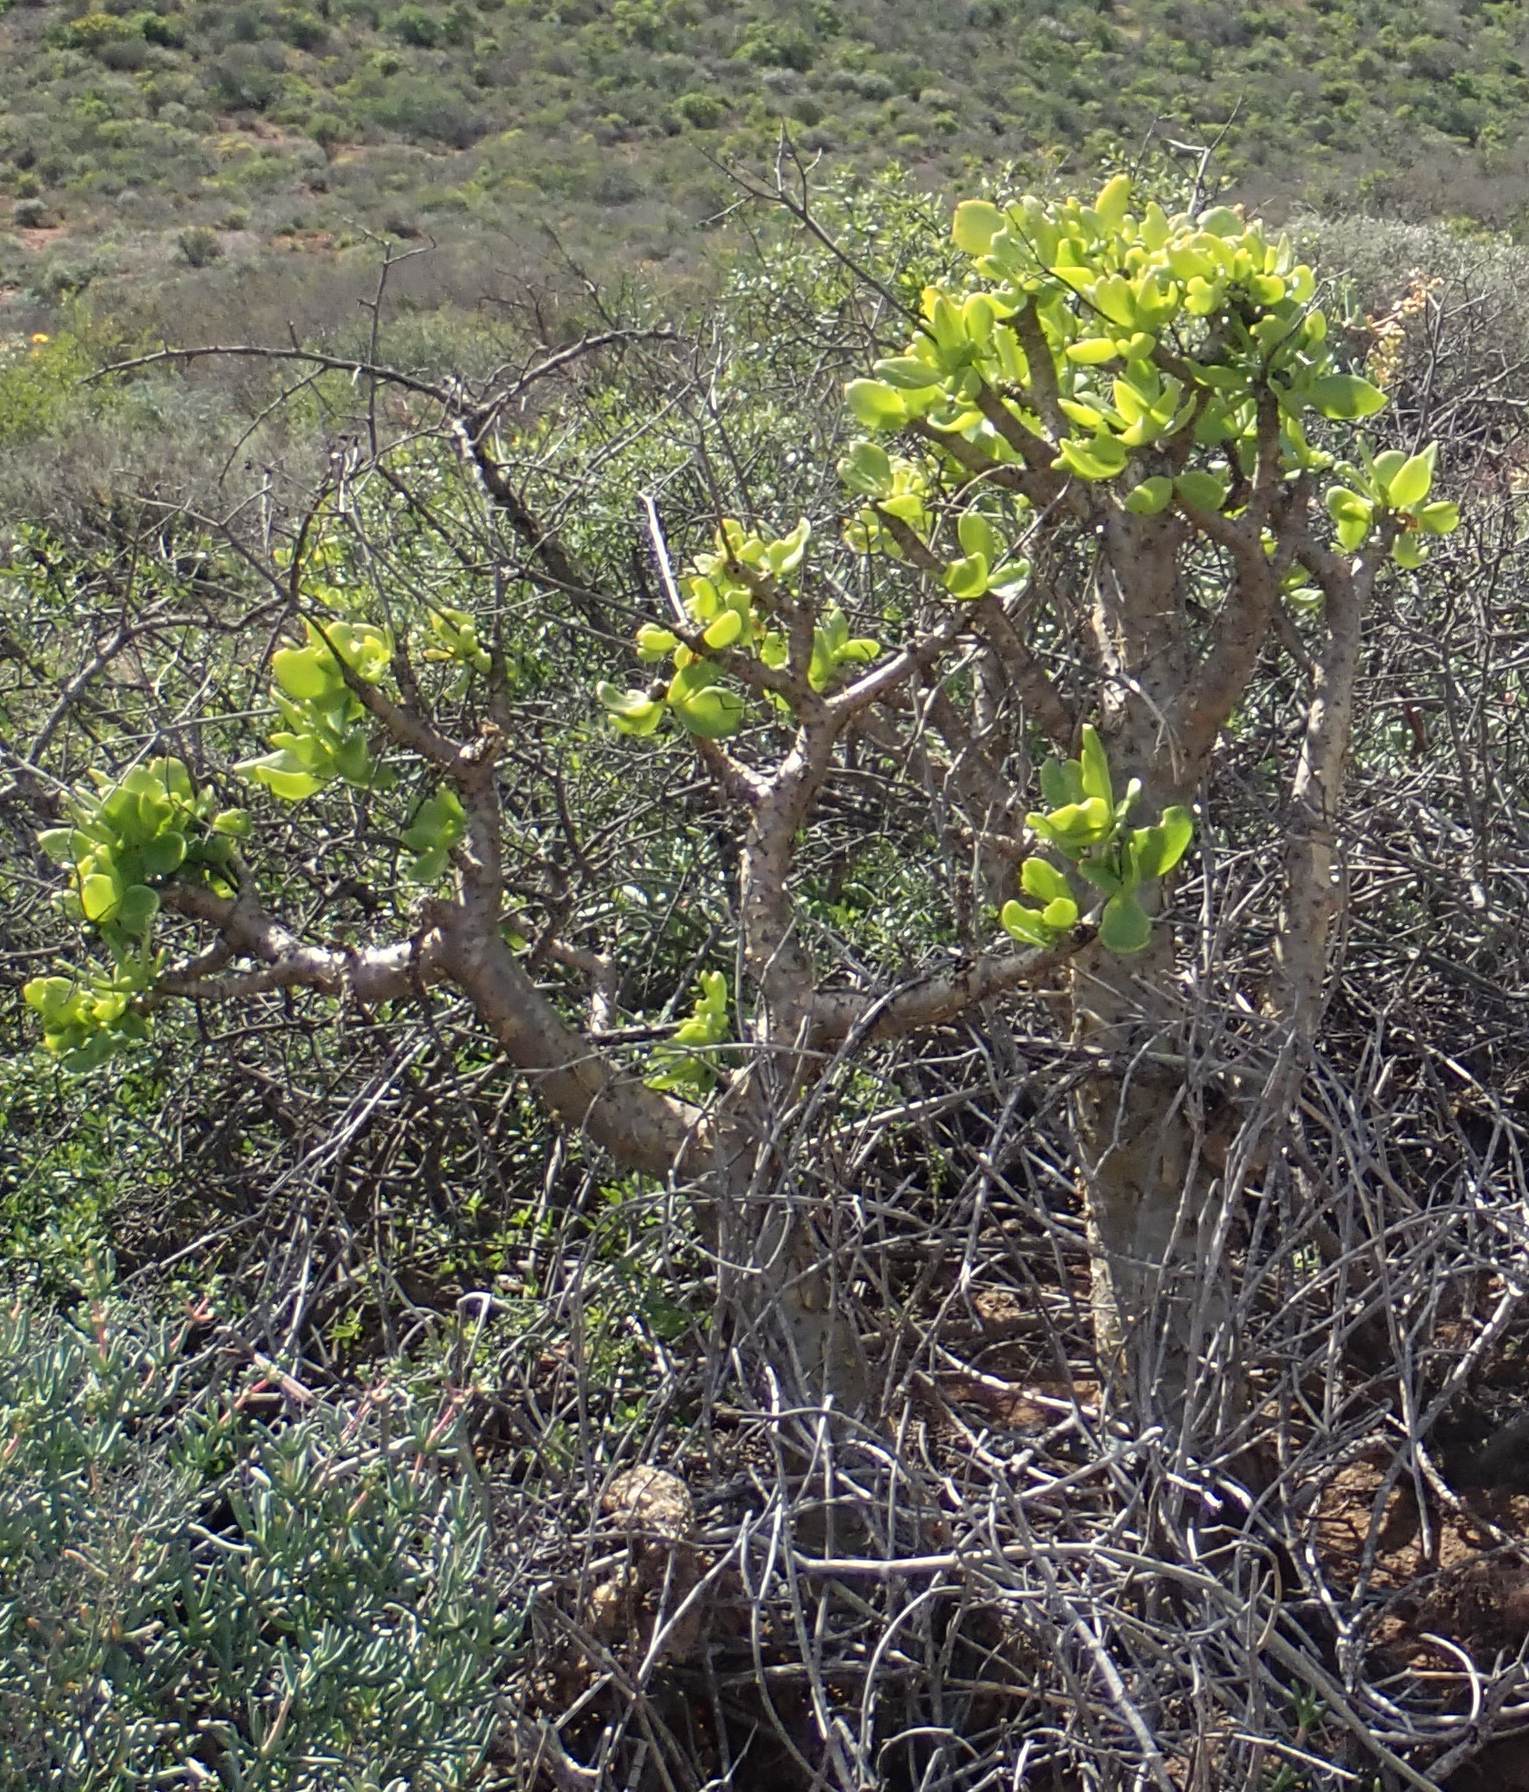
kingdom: Plantae
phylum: Tracheophyta
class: Magnoliopsida
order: Saxifragales
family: Crassulaceae
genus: Tylecodon
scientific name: Tylecodon paniculatus
